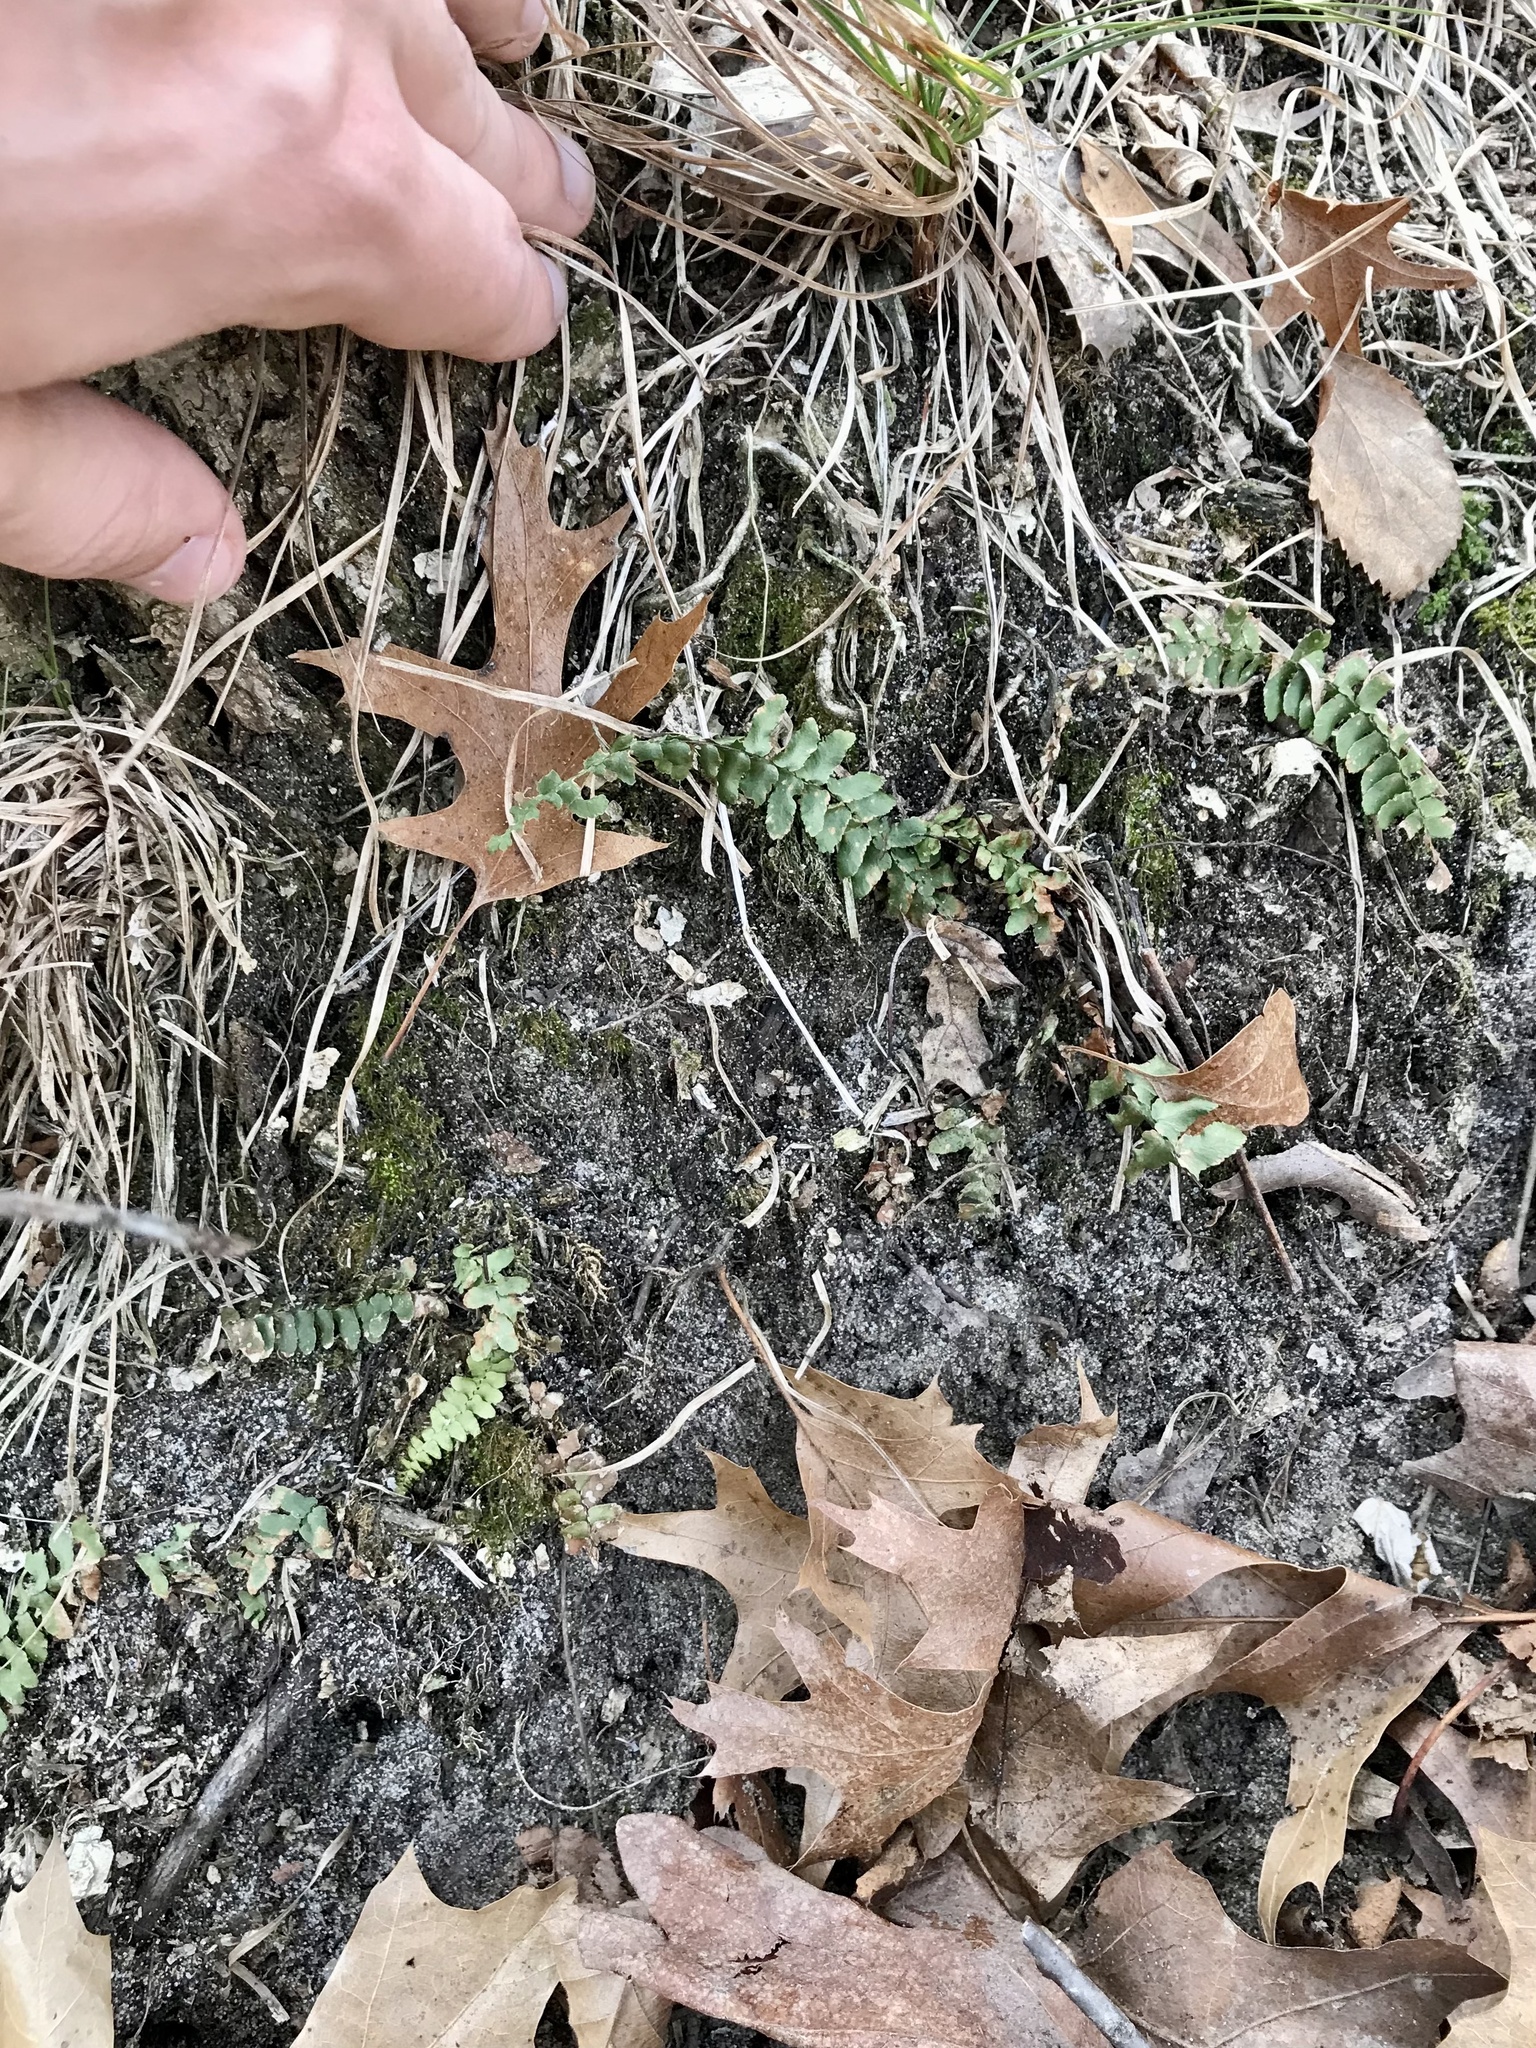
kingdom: Plantae
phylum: Tracheophyta
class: Polypodiopsida
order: Polypodiales
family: Aspleniaceae
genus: Asplenium
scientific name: Asplenium platyneuron
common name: Ebony spleenwort
